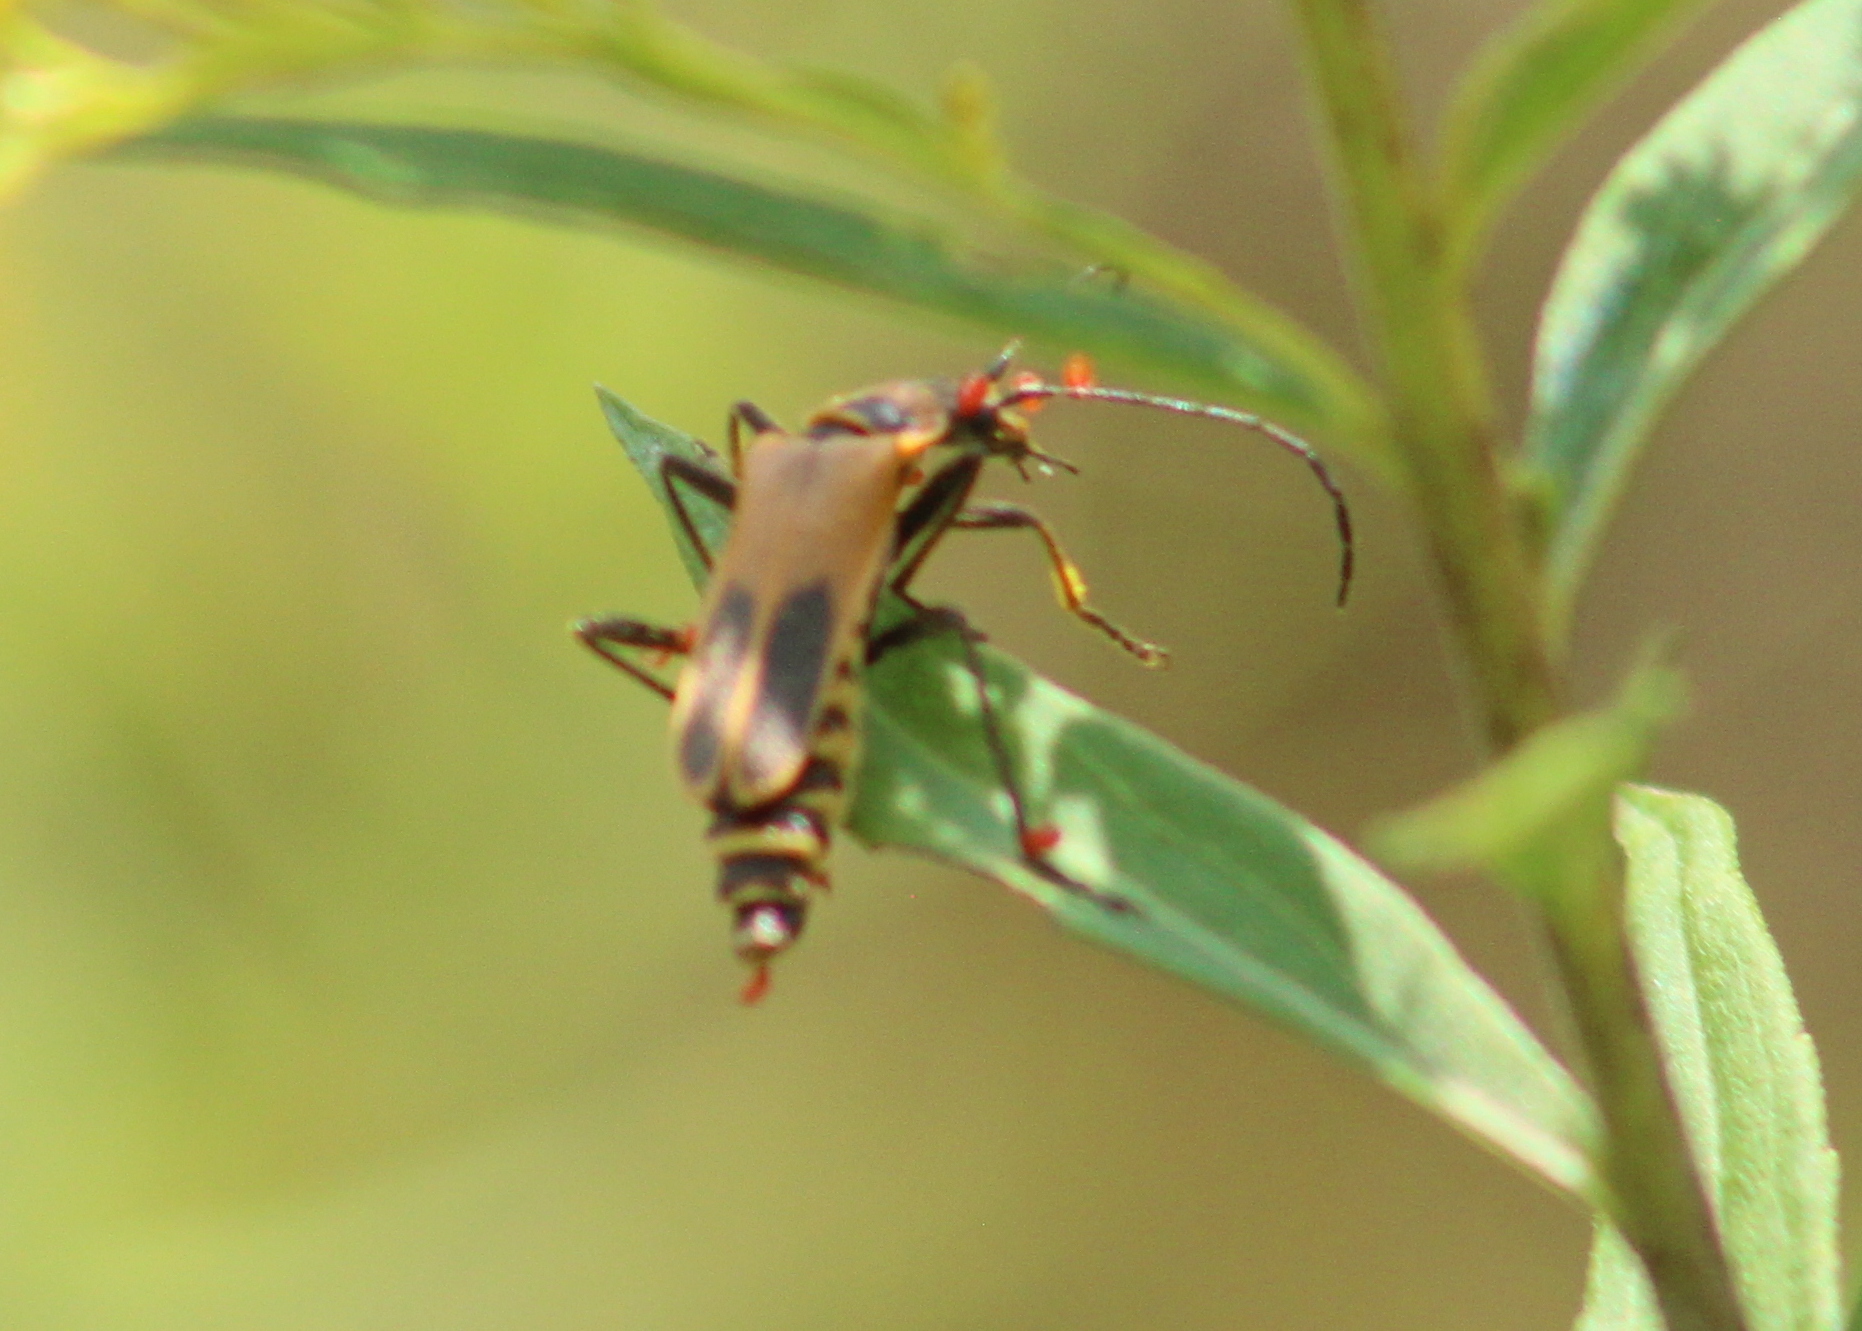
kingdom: Animalia
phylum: Arthropoda
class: Insecta
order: Coleoptera
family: Cantharidae
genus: Chauliognathus
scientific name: Chauliognathus pensylvanicus
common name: Goldenrod soldier beetle
